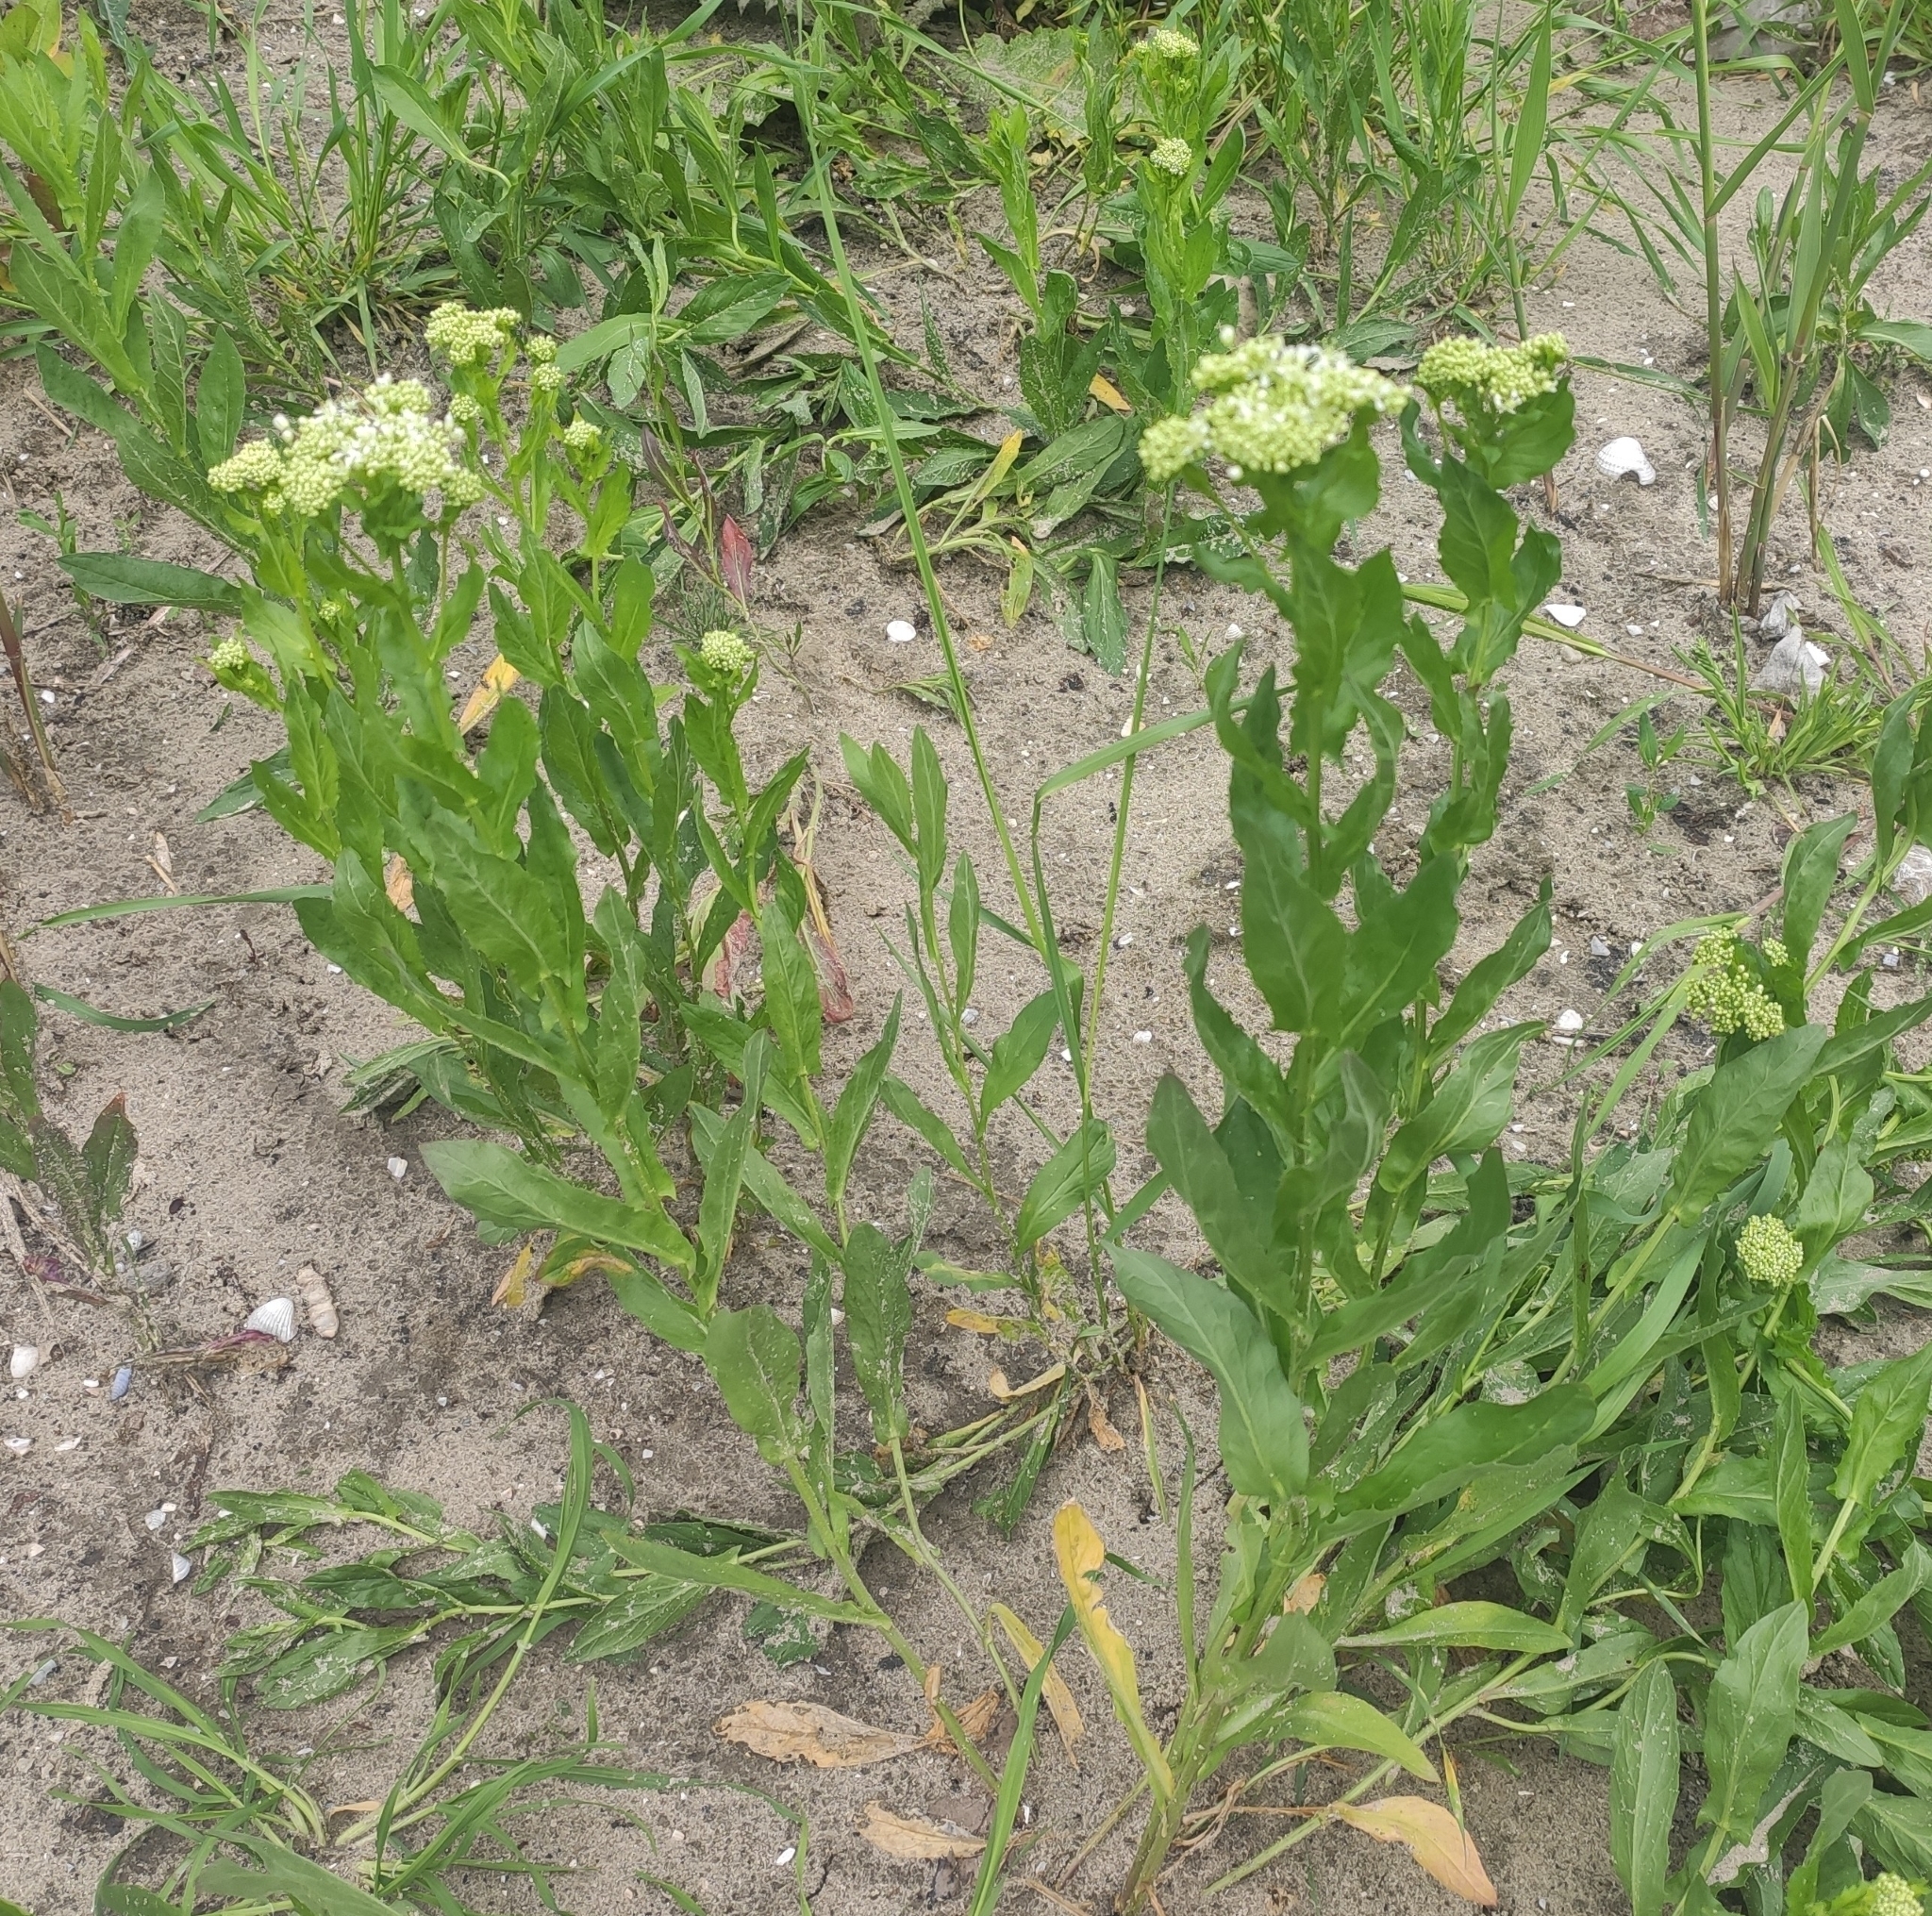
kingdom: Plantae
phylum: Tracheophyta
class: Magnoliopsida
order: Brassicales
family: Brassicaceae
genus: Lepidium
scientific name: Lepidium draba
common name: Hoary cress
